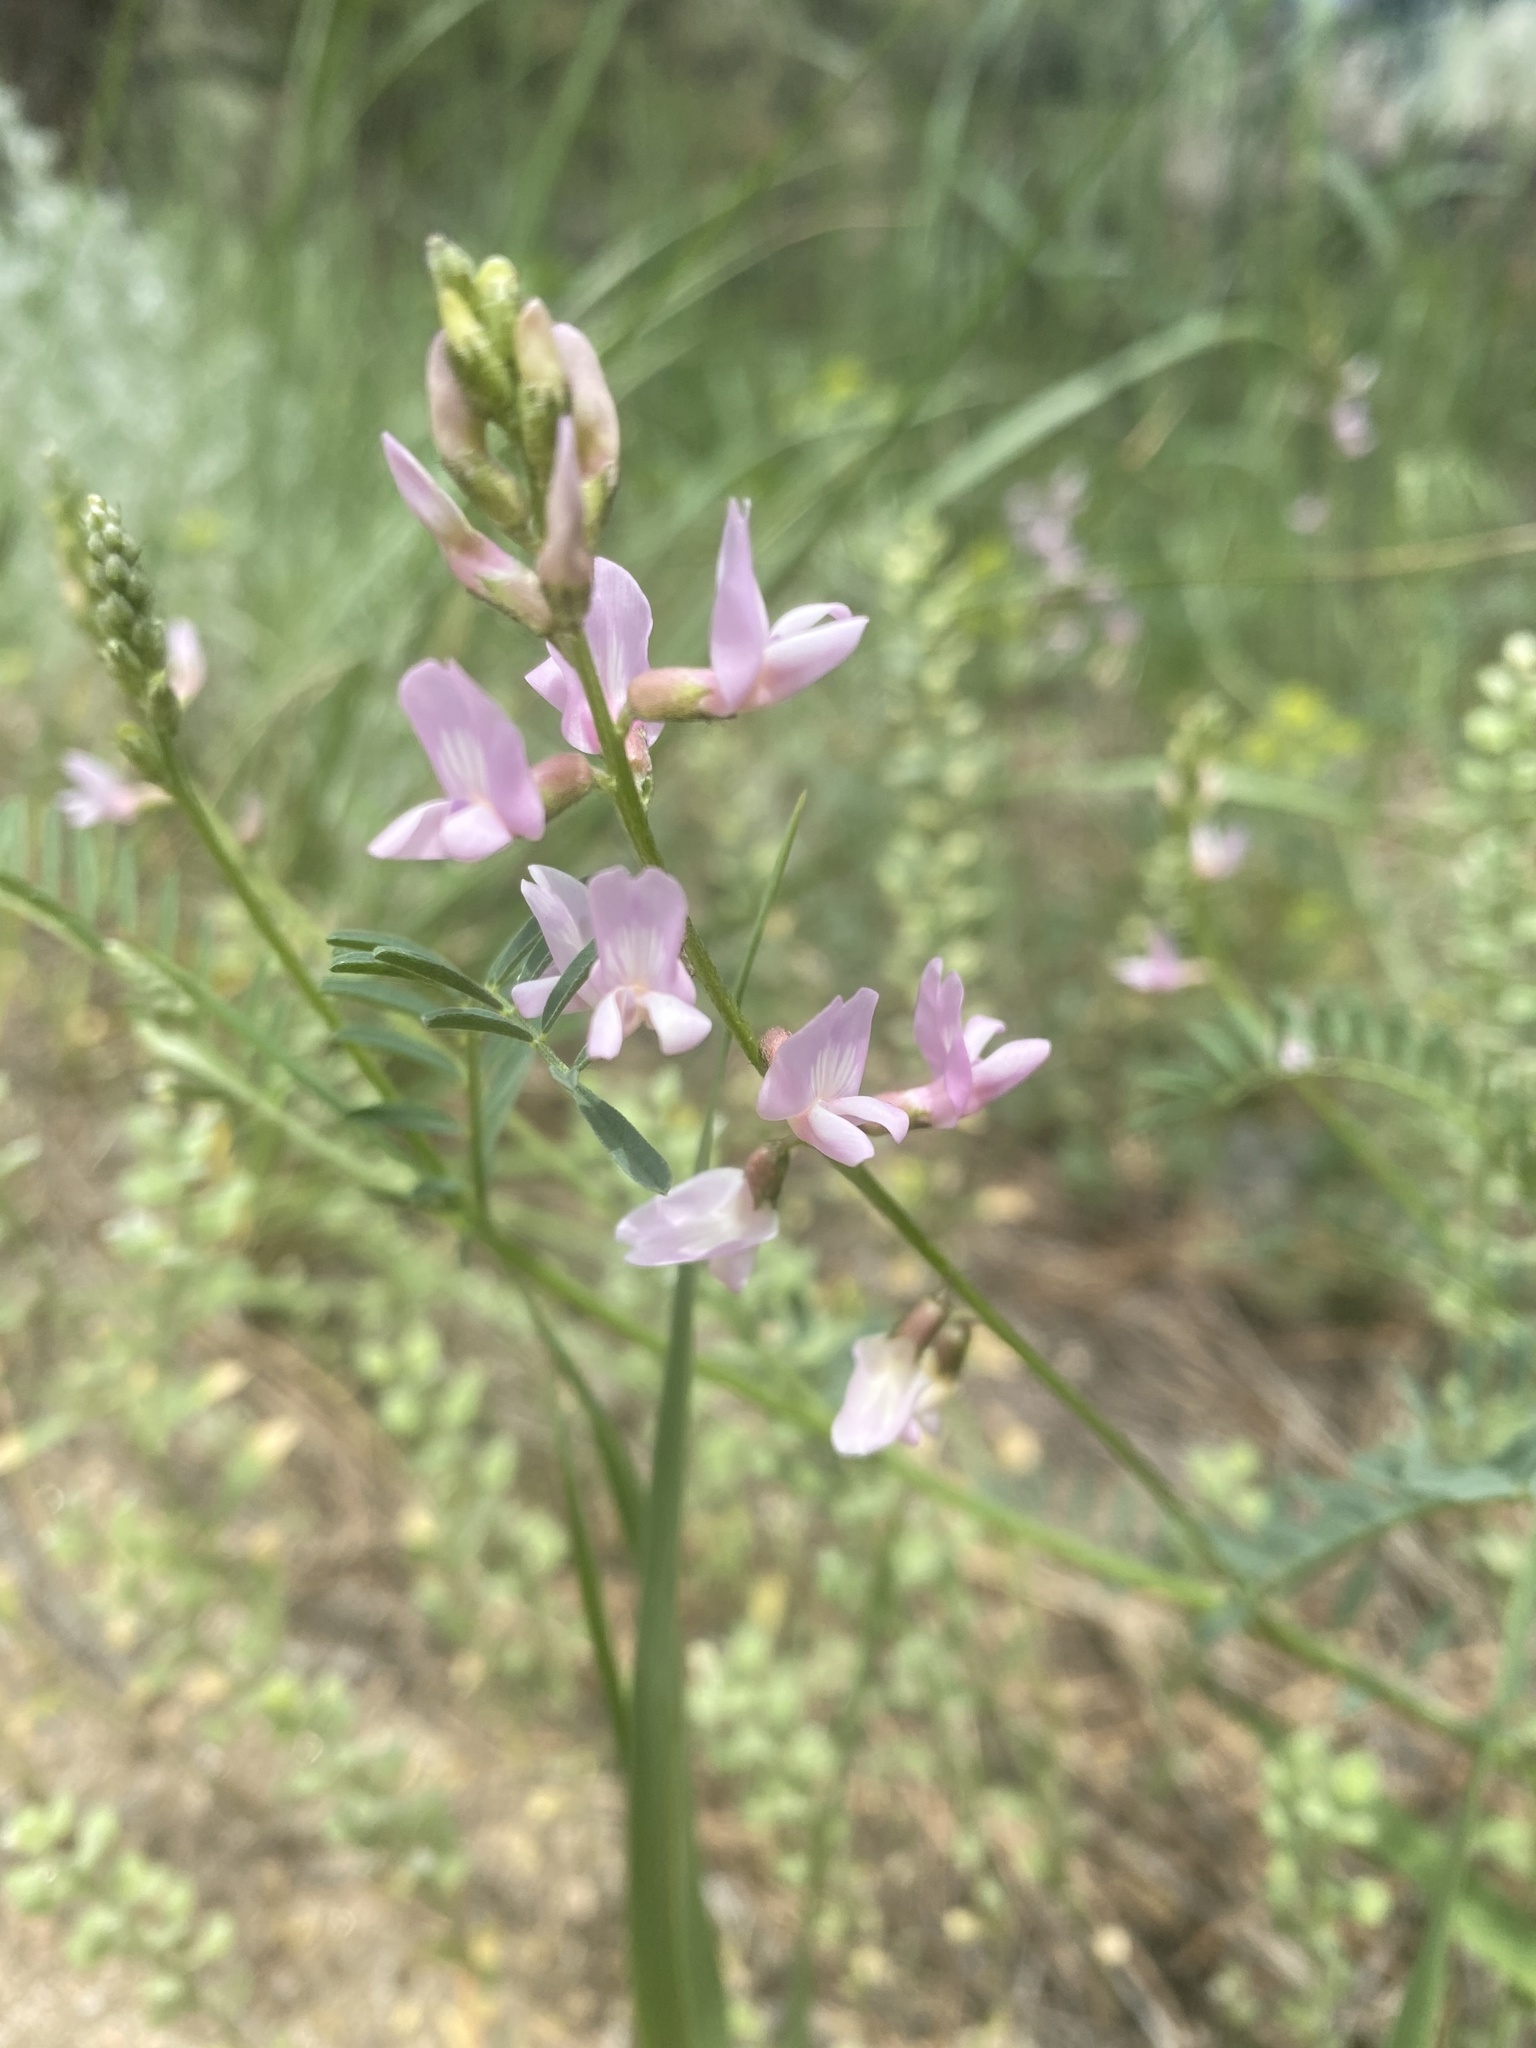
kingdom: Plantae
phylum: Tracheophyta
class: Magnoliopsida
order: Fabales
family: Fabaceae
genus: Astragalus
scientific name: Astragalus flexuosus
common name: Pliant milk-vetch
